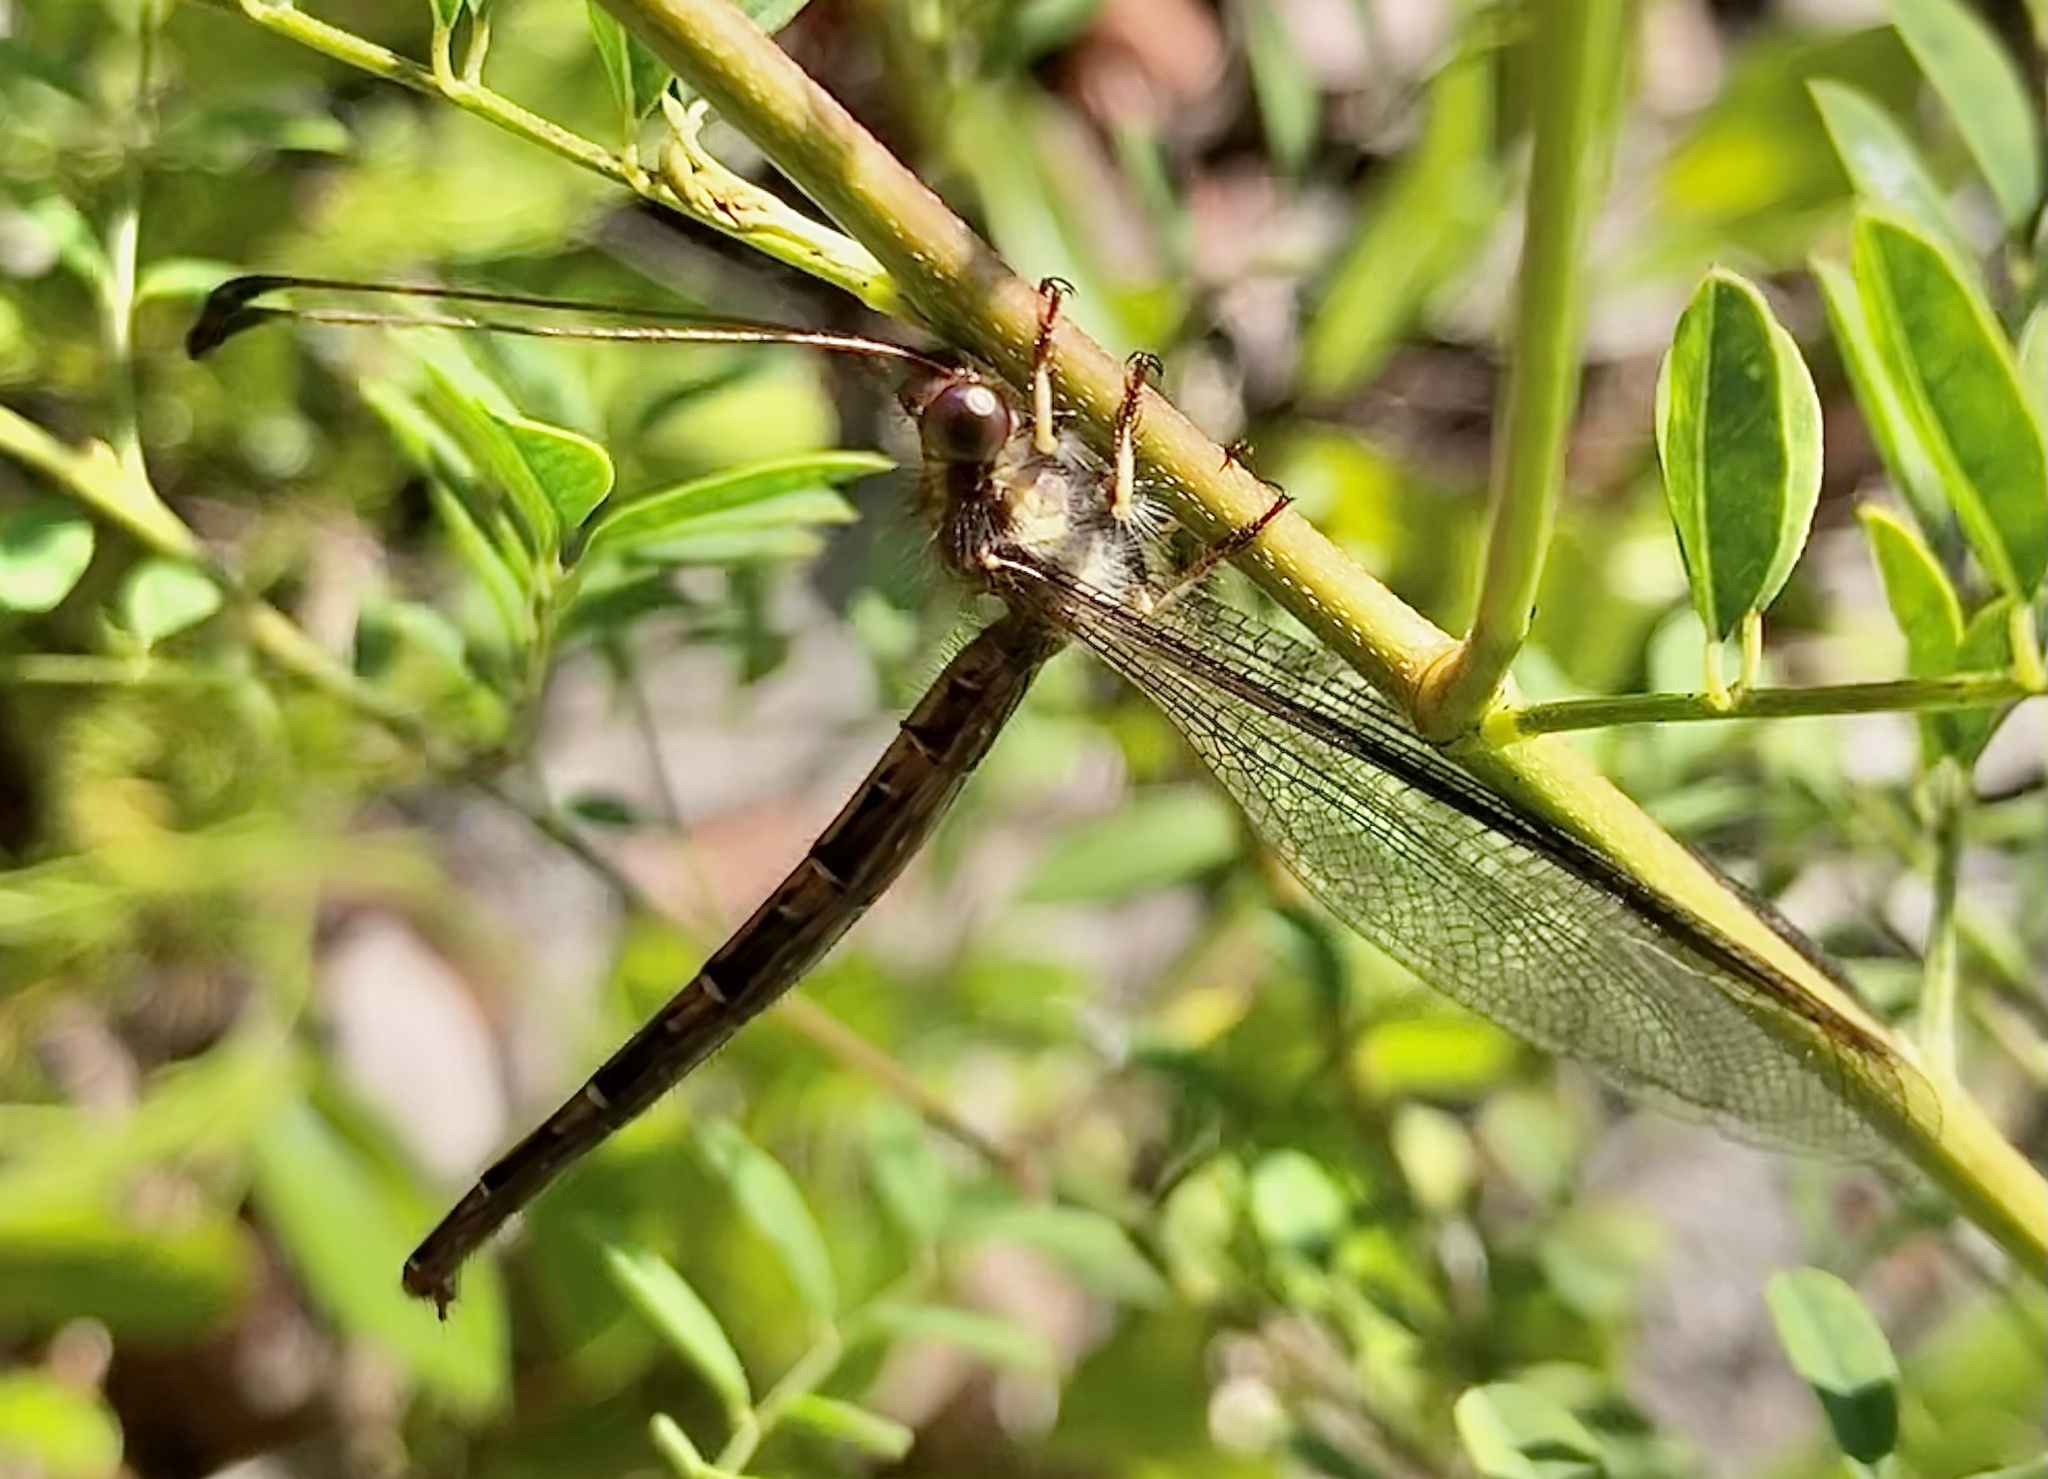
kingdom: Animalia
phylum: Arthropoda
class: Insecta
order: Neuroptera
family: Ascalaphidae
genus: Ascaloptynx
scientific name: Ascaloptynx appendiculata
